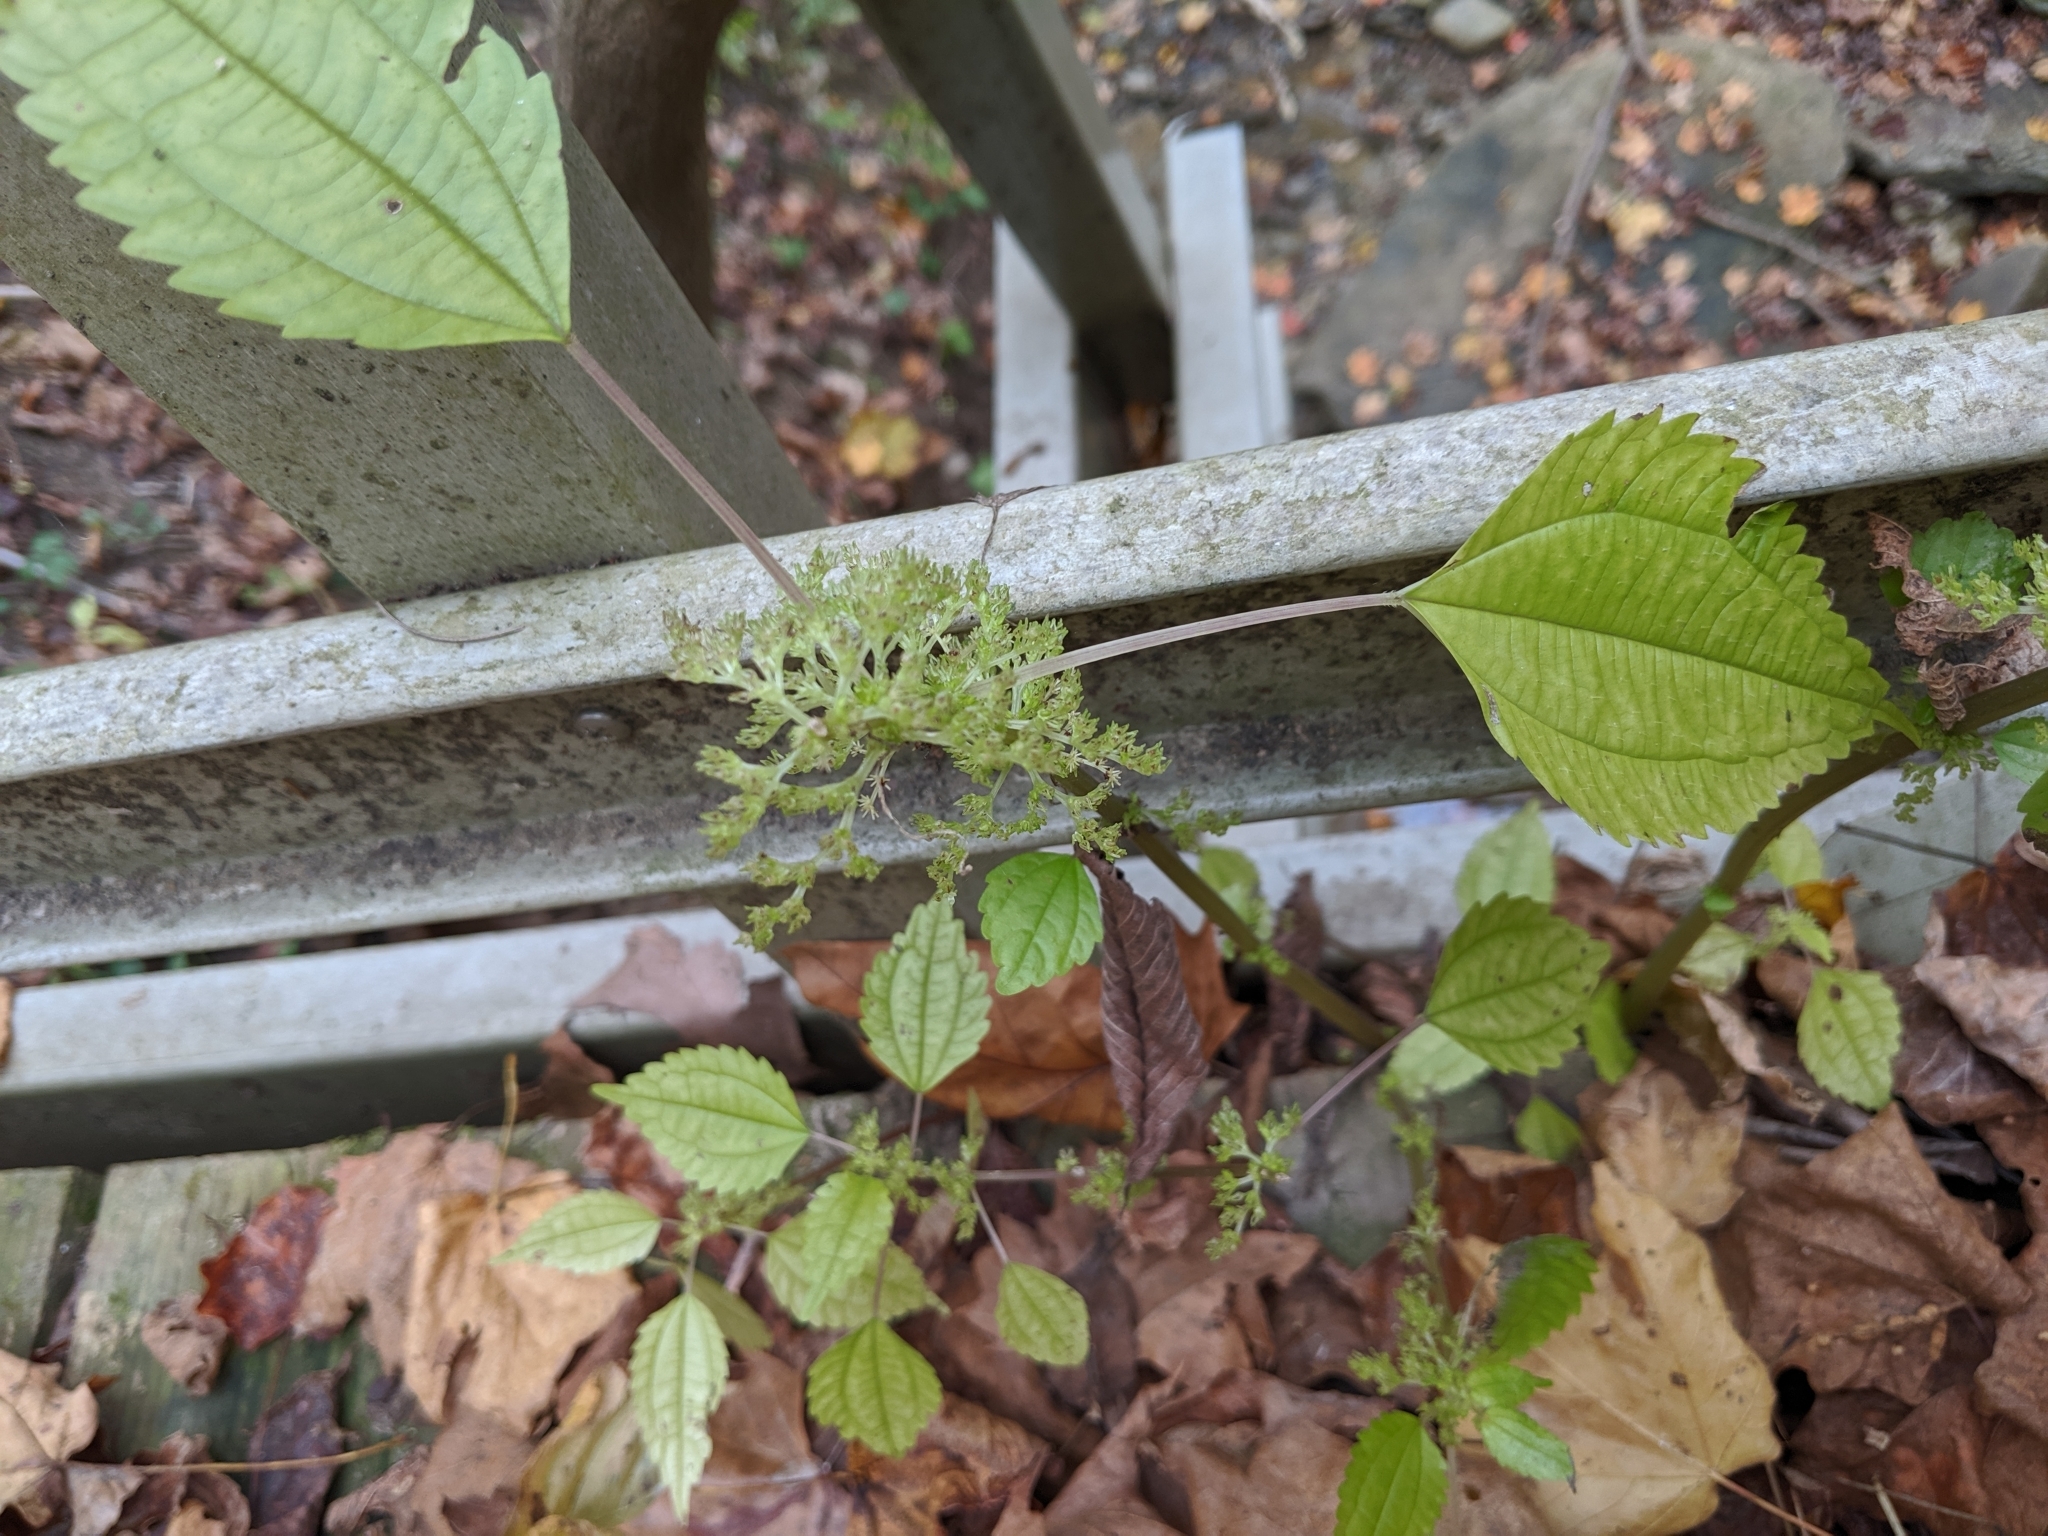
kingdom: Plantae
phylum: Tracheophyta
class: Magnoliopsida
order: Rosales
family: Urticaceae
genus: Pilea
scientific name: Pilea pumila
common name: Clearweed
